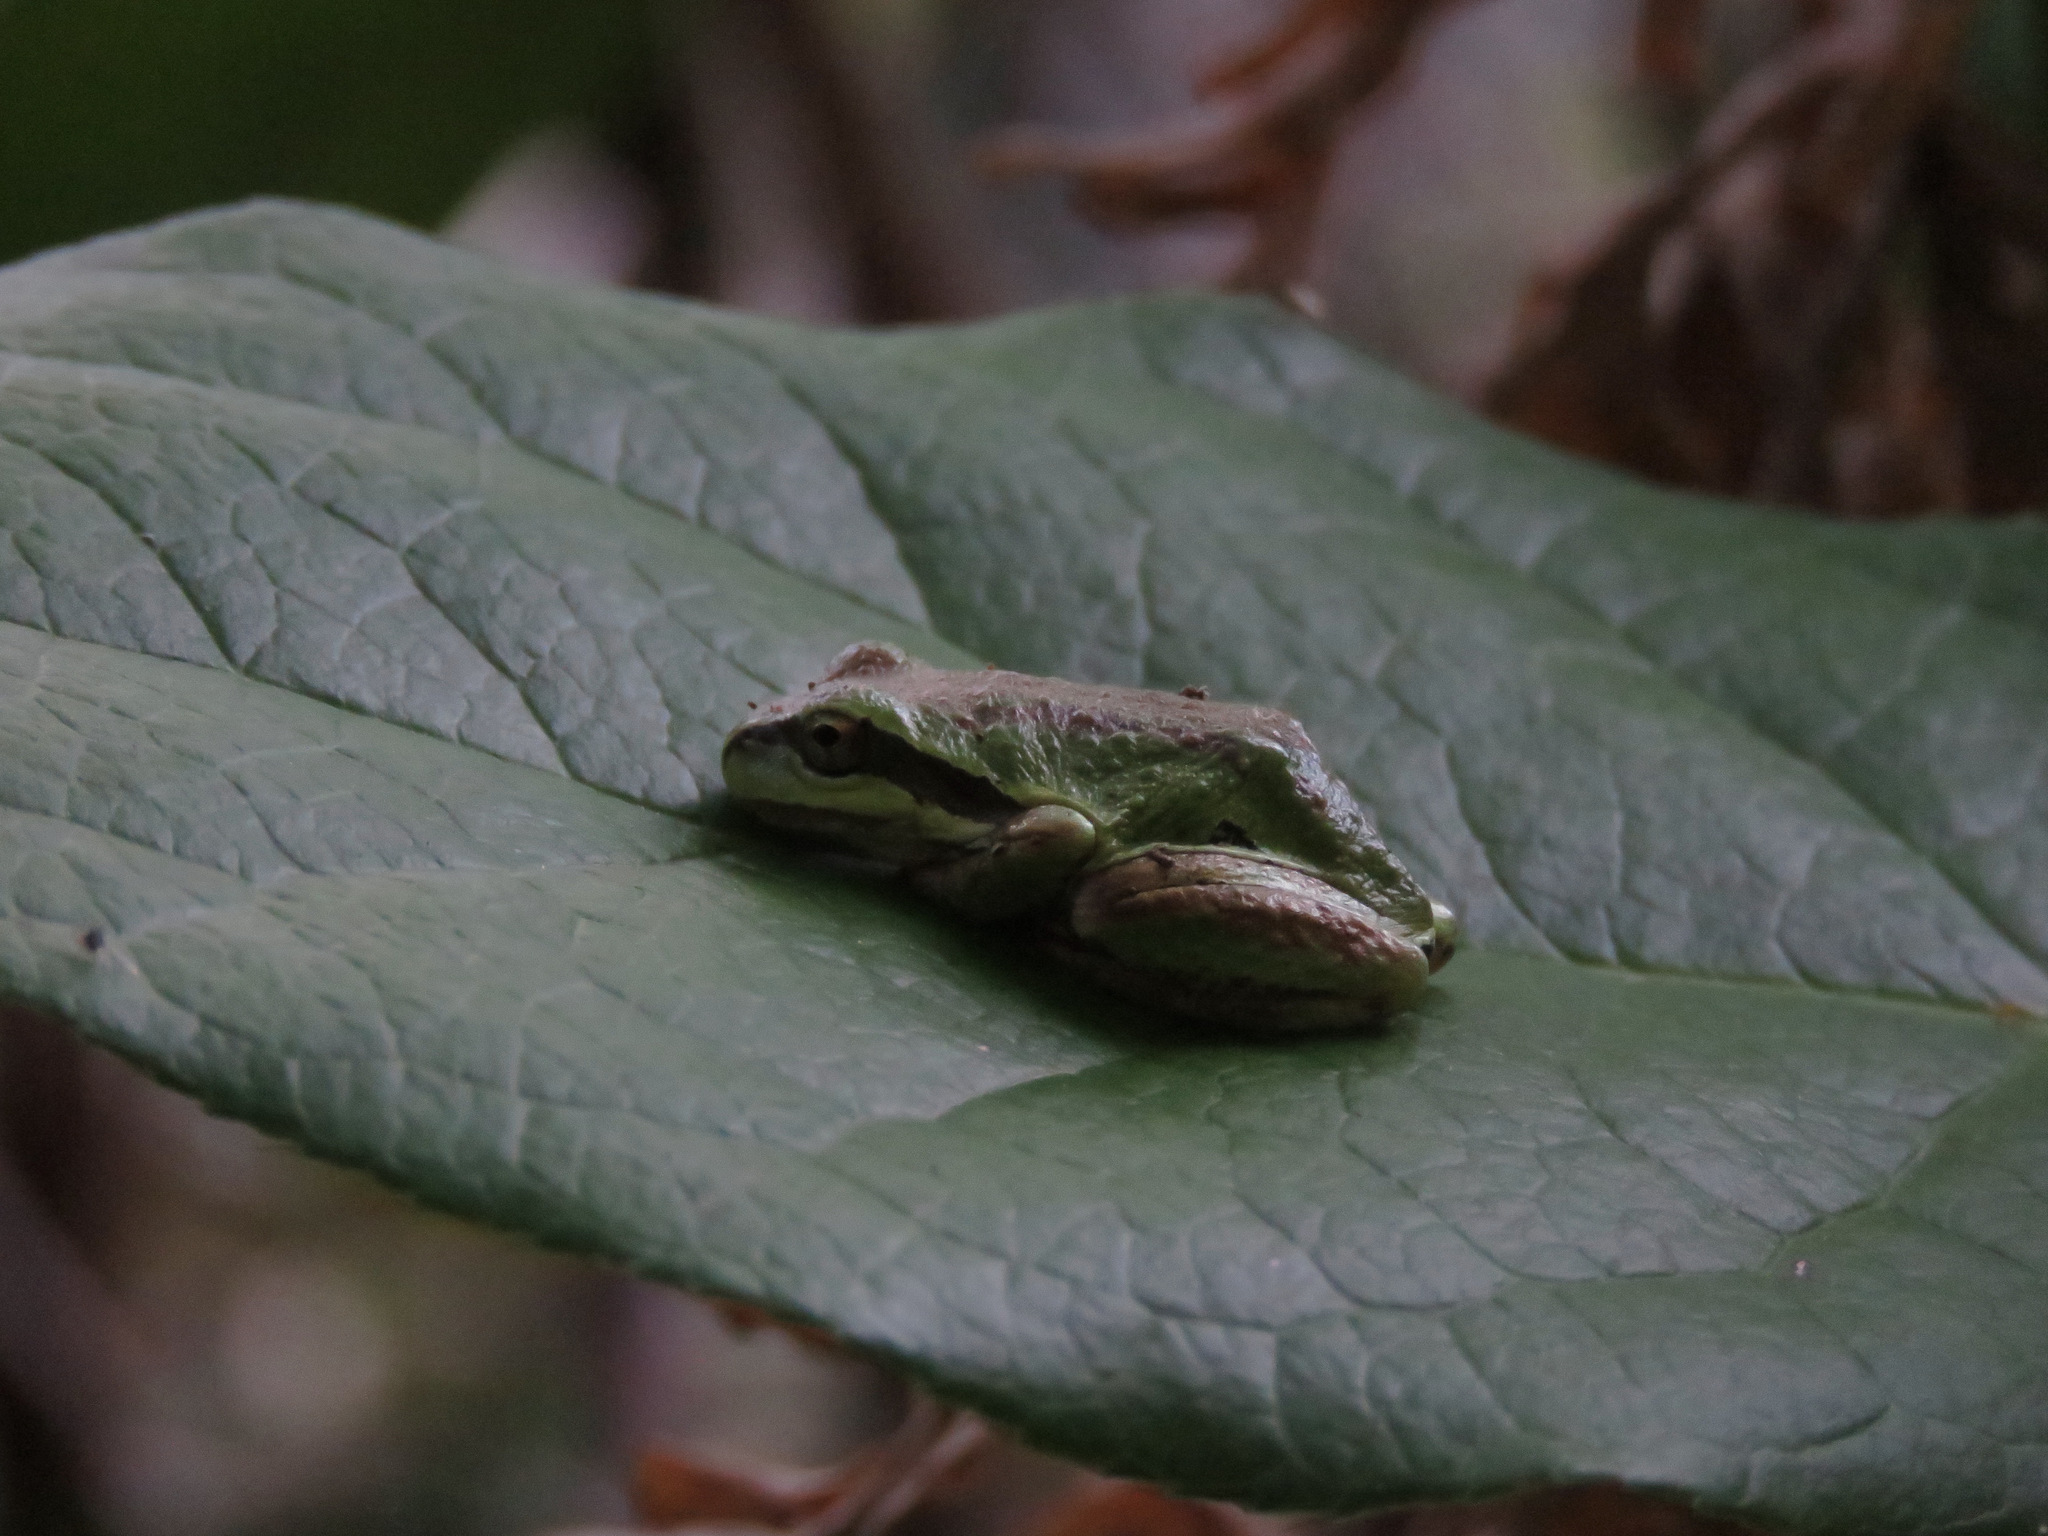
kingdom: Animalia
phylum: Chordata
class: Amphibia
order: Anura
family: Hylidae
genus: Pseudacris
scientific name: Pseudacris regilla
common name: Pacific chorus frog
